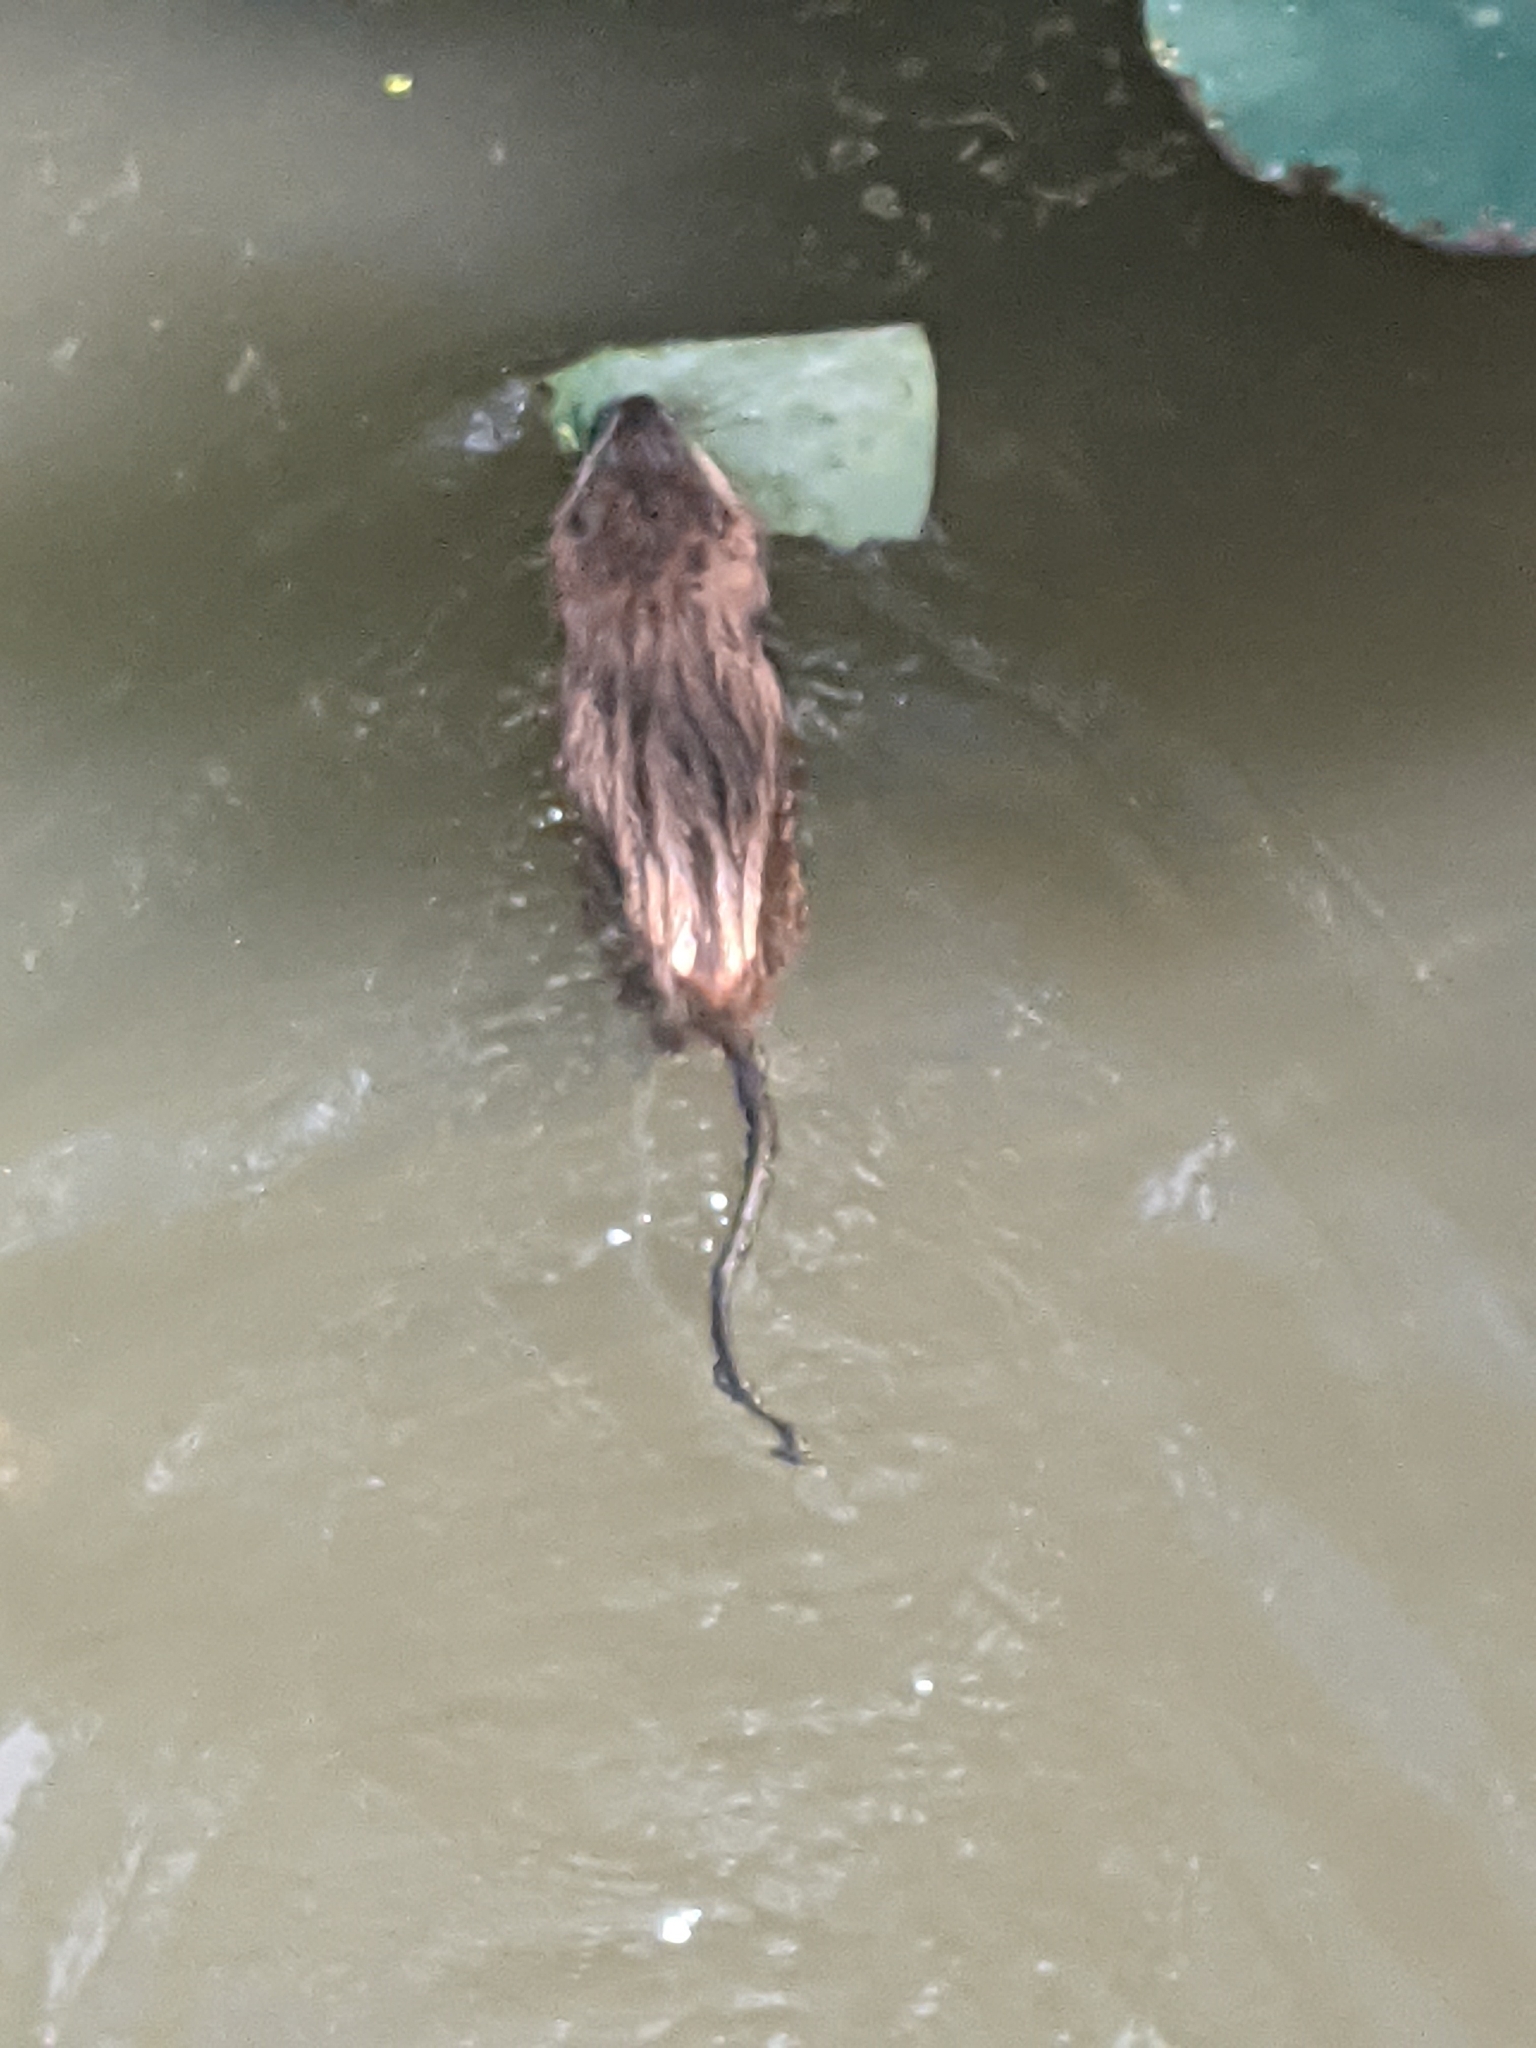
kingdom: Animalia
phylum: Chordata
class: Mammalia
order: Rodentia
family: Cricetidae
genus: Ondatra
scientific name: Ondatra zibethicus
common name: Muskrat
